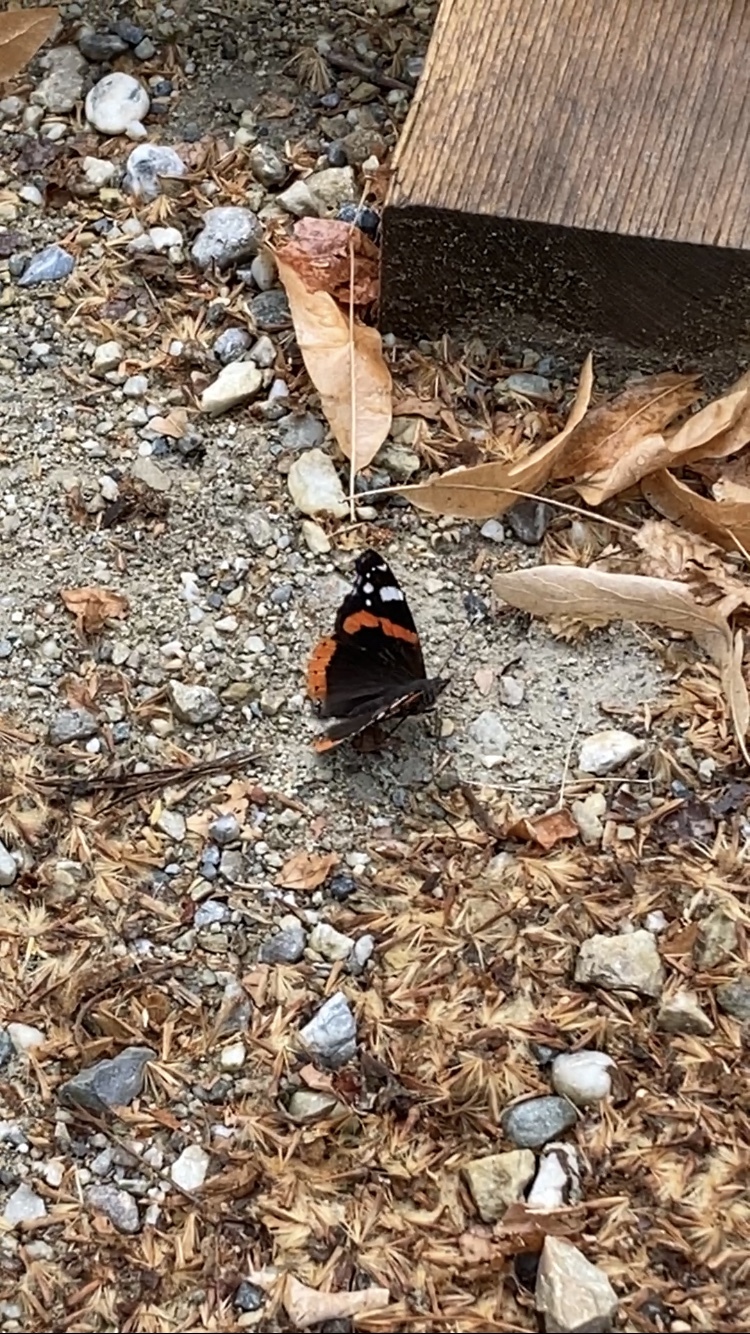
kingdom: Animalia
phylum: Arthropoda
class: Insecta
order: Lepidoptera
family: Nymphalidae
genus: Vanessa
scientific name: Vanessa atalanta
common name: Red admiral
